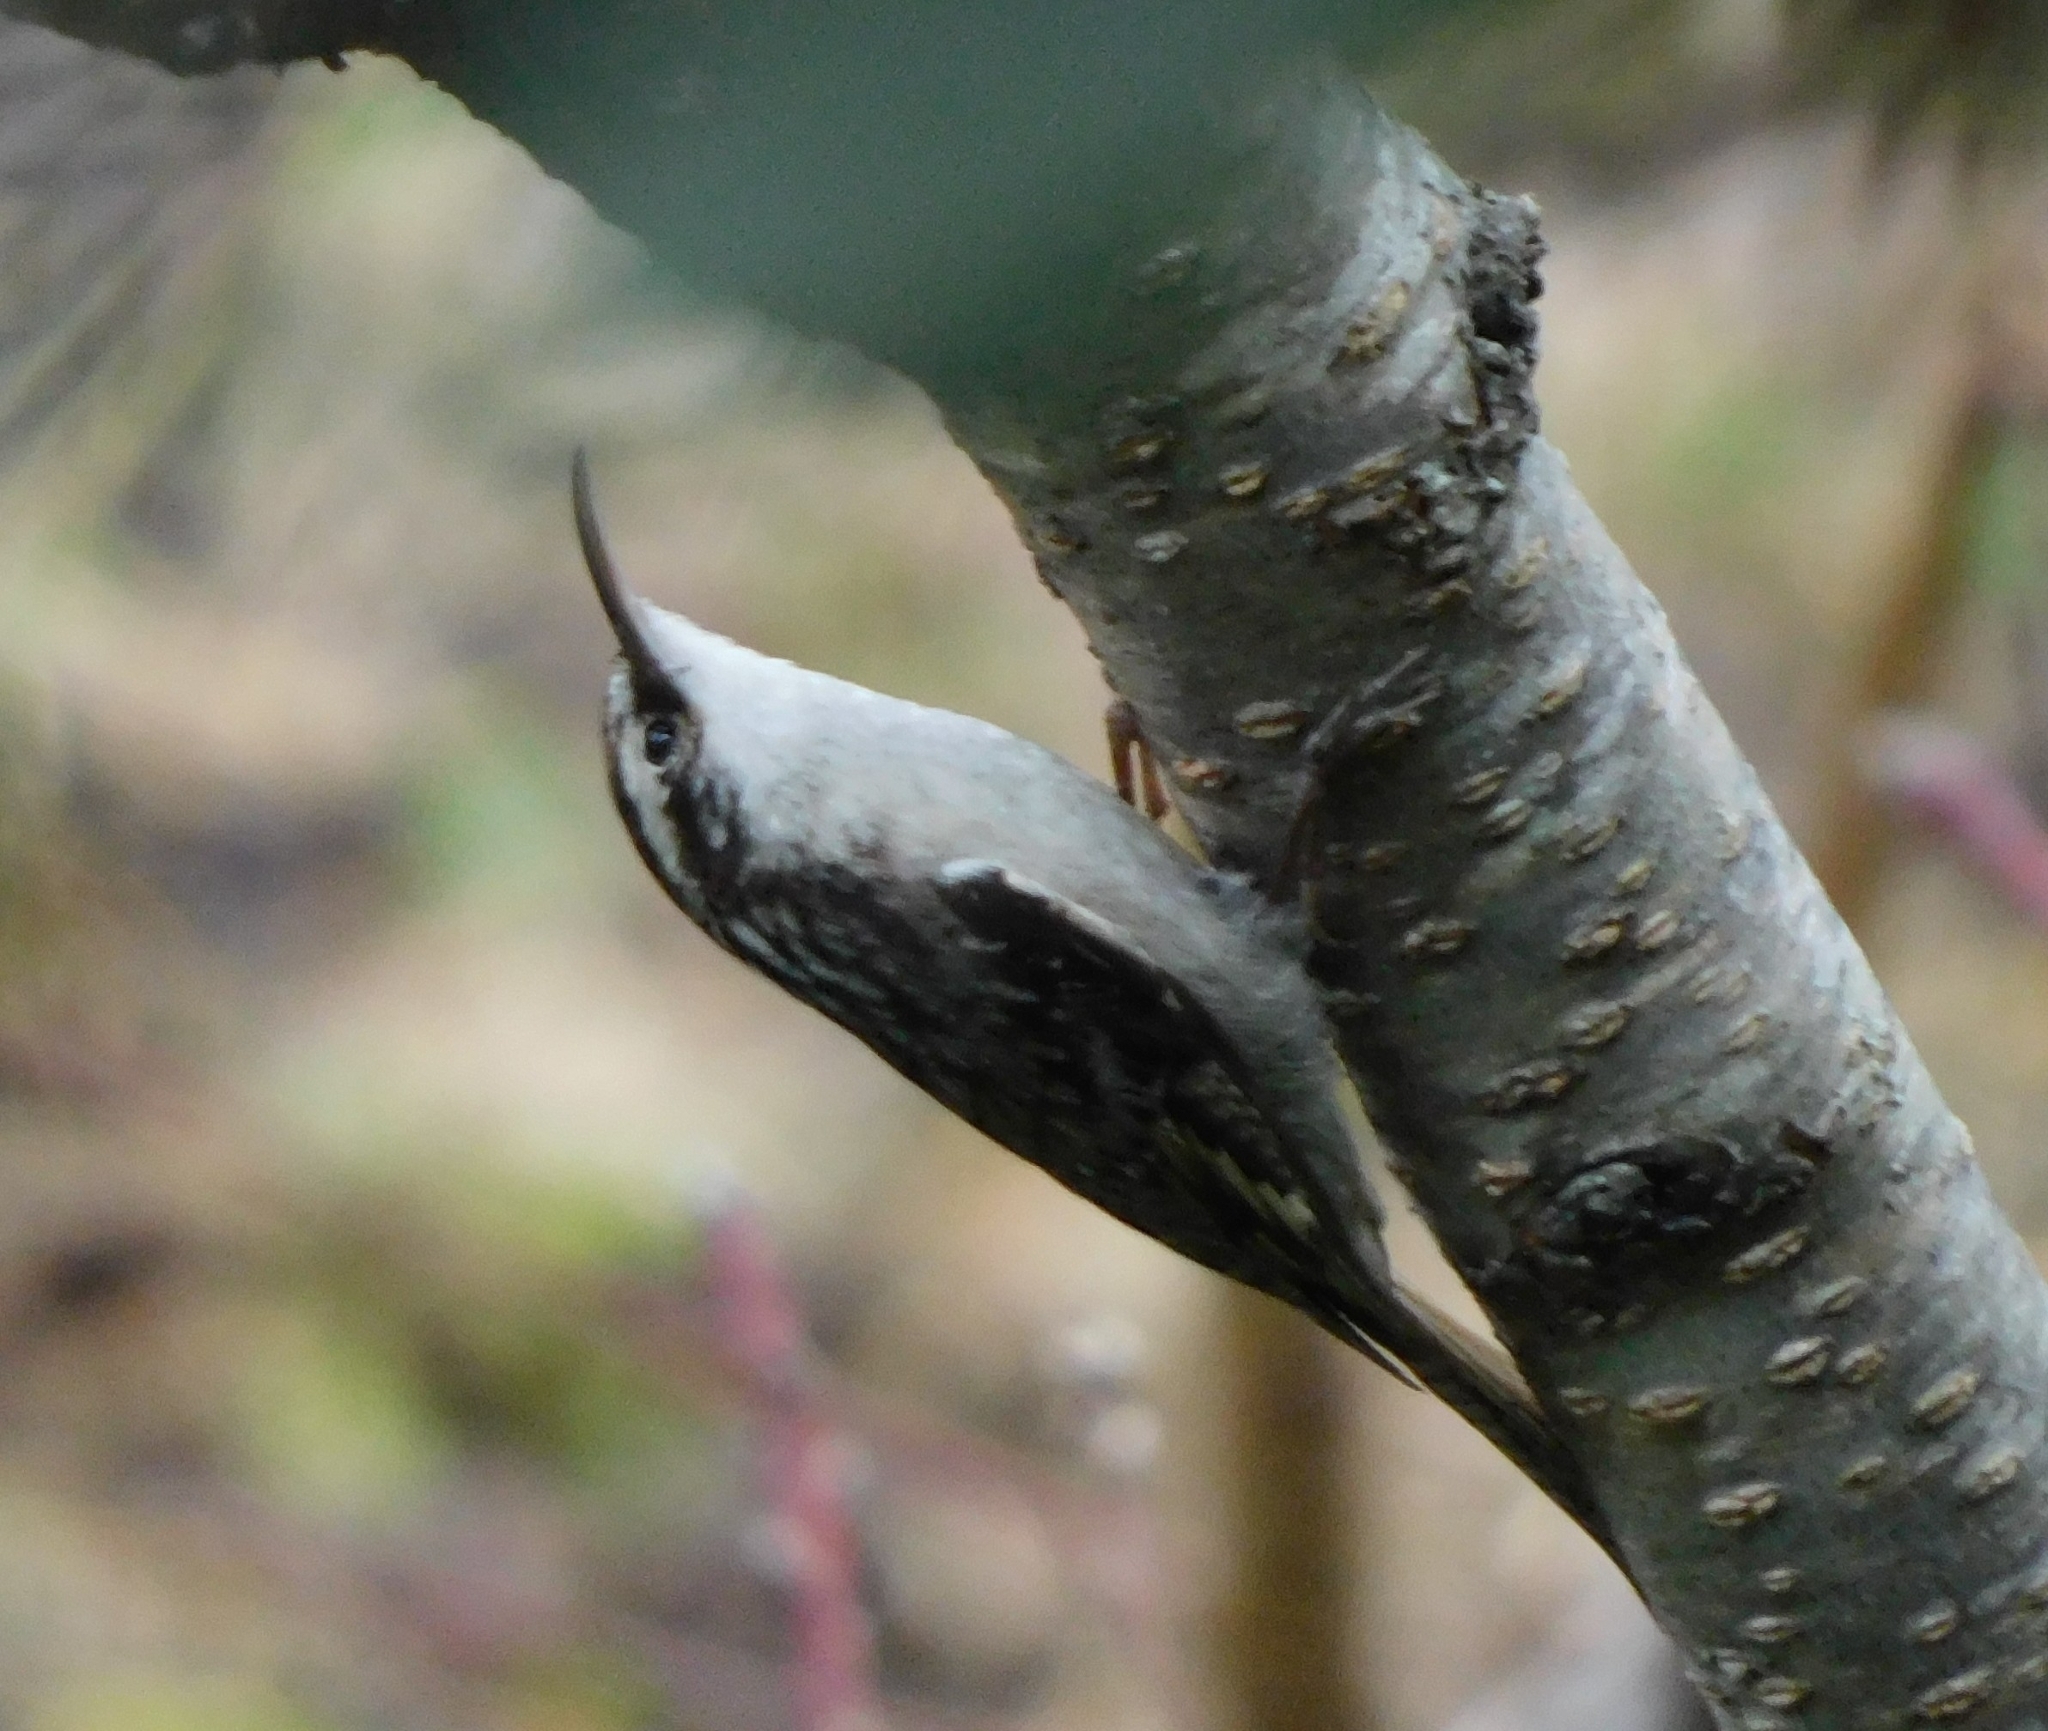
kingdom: Animalia
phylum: Chordata
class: Aves
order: Passeriformes
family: Certhiidae
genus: Certhia
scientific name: Certhia himalayana
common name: Bar-tailed treecreeper
